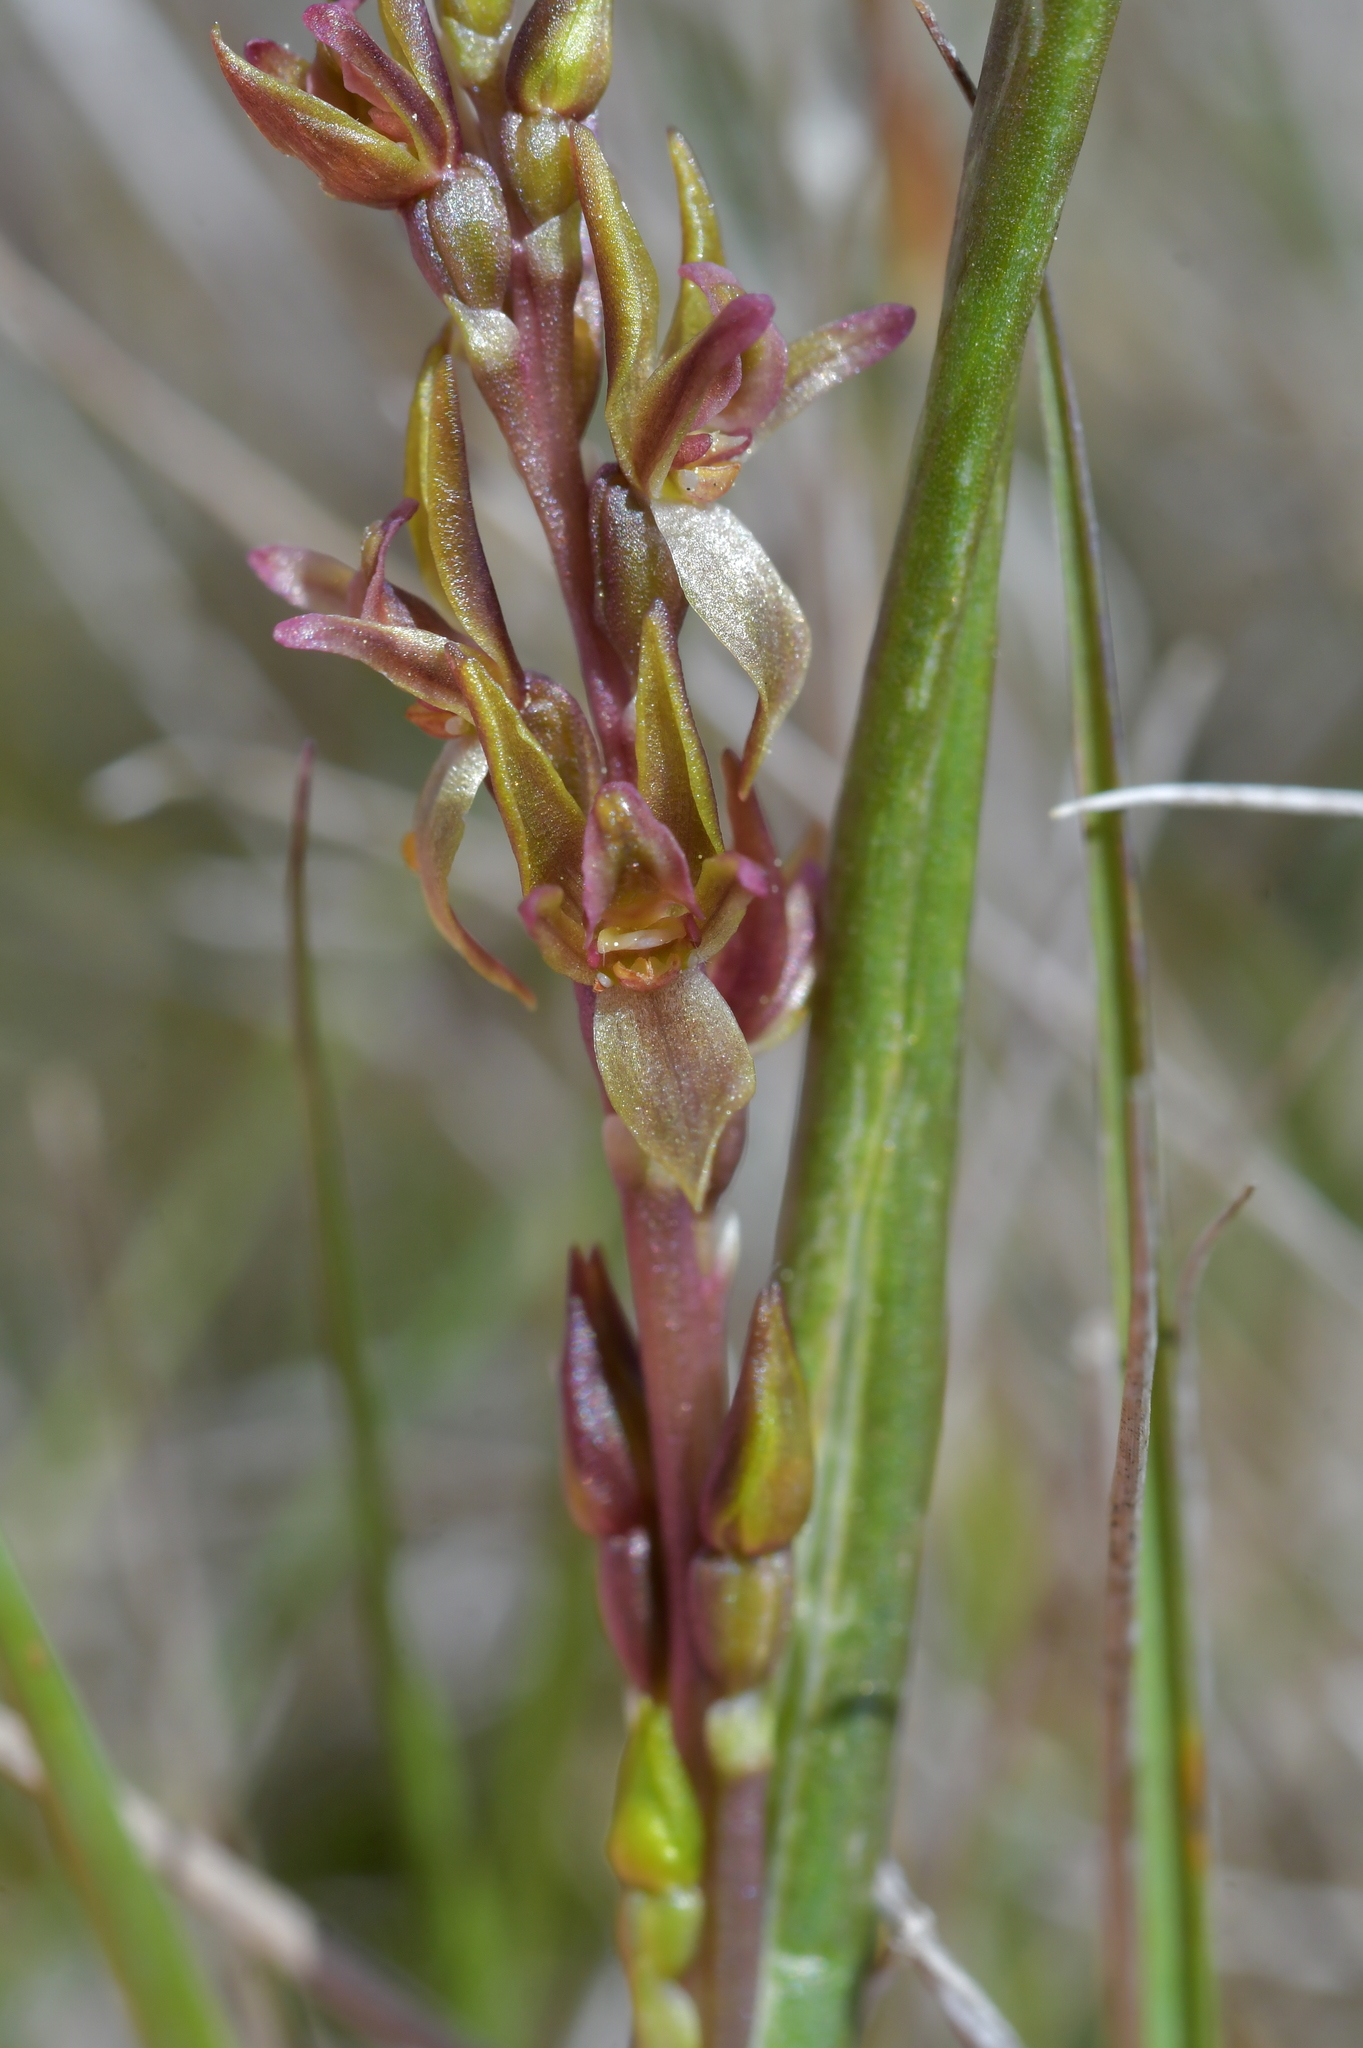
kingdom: Plantae
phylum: Tracheophyta
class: Liliopsida
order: Asparagales
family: Orchidaceae
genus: Prasophyllum
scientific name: Prasophyllum colensoi
